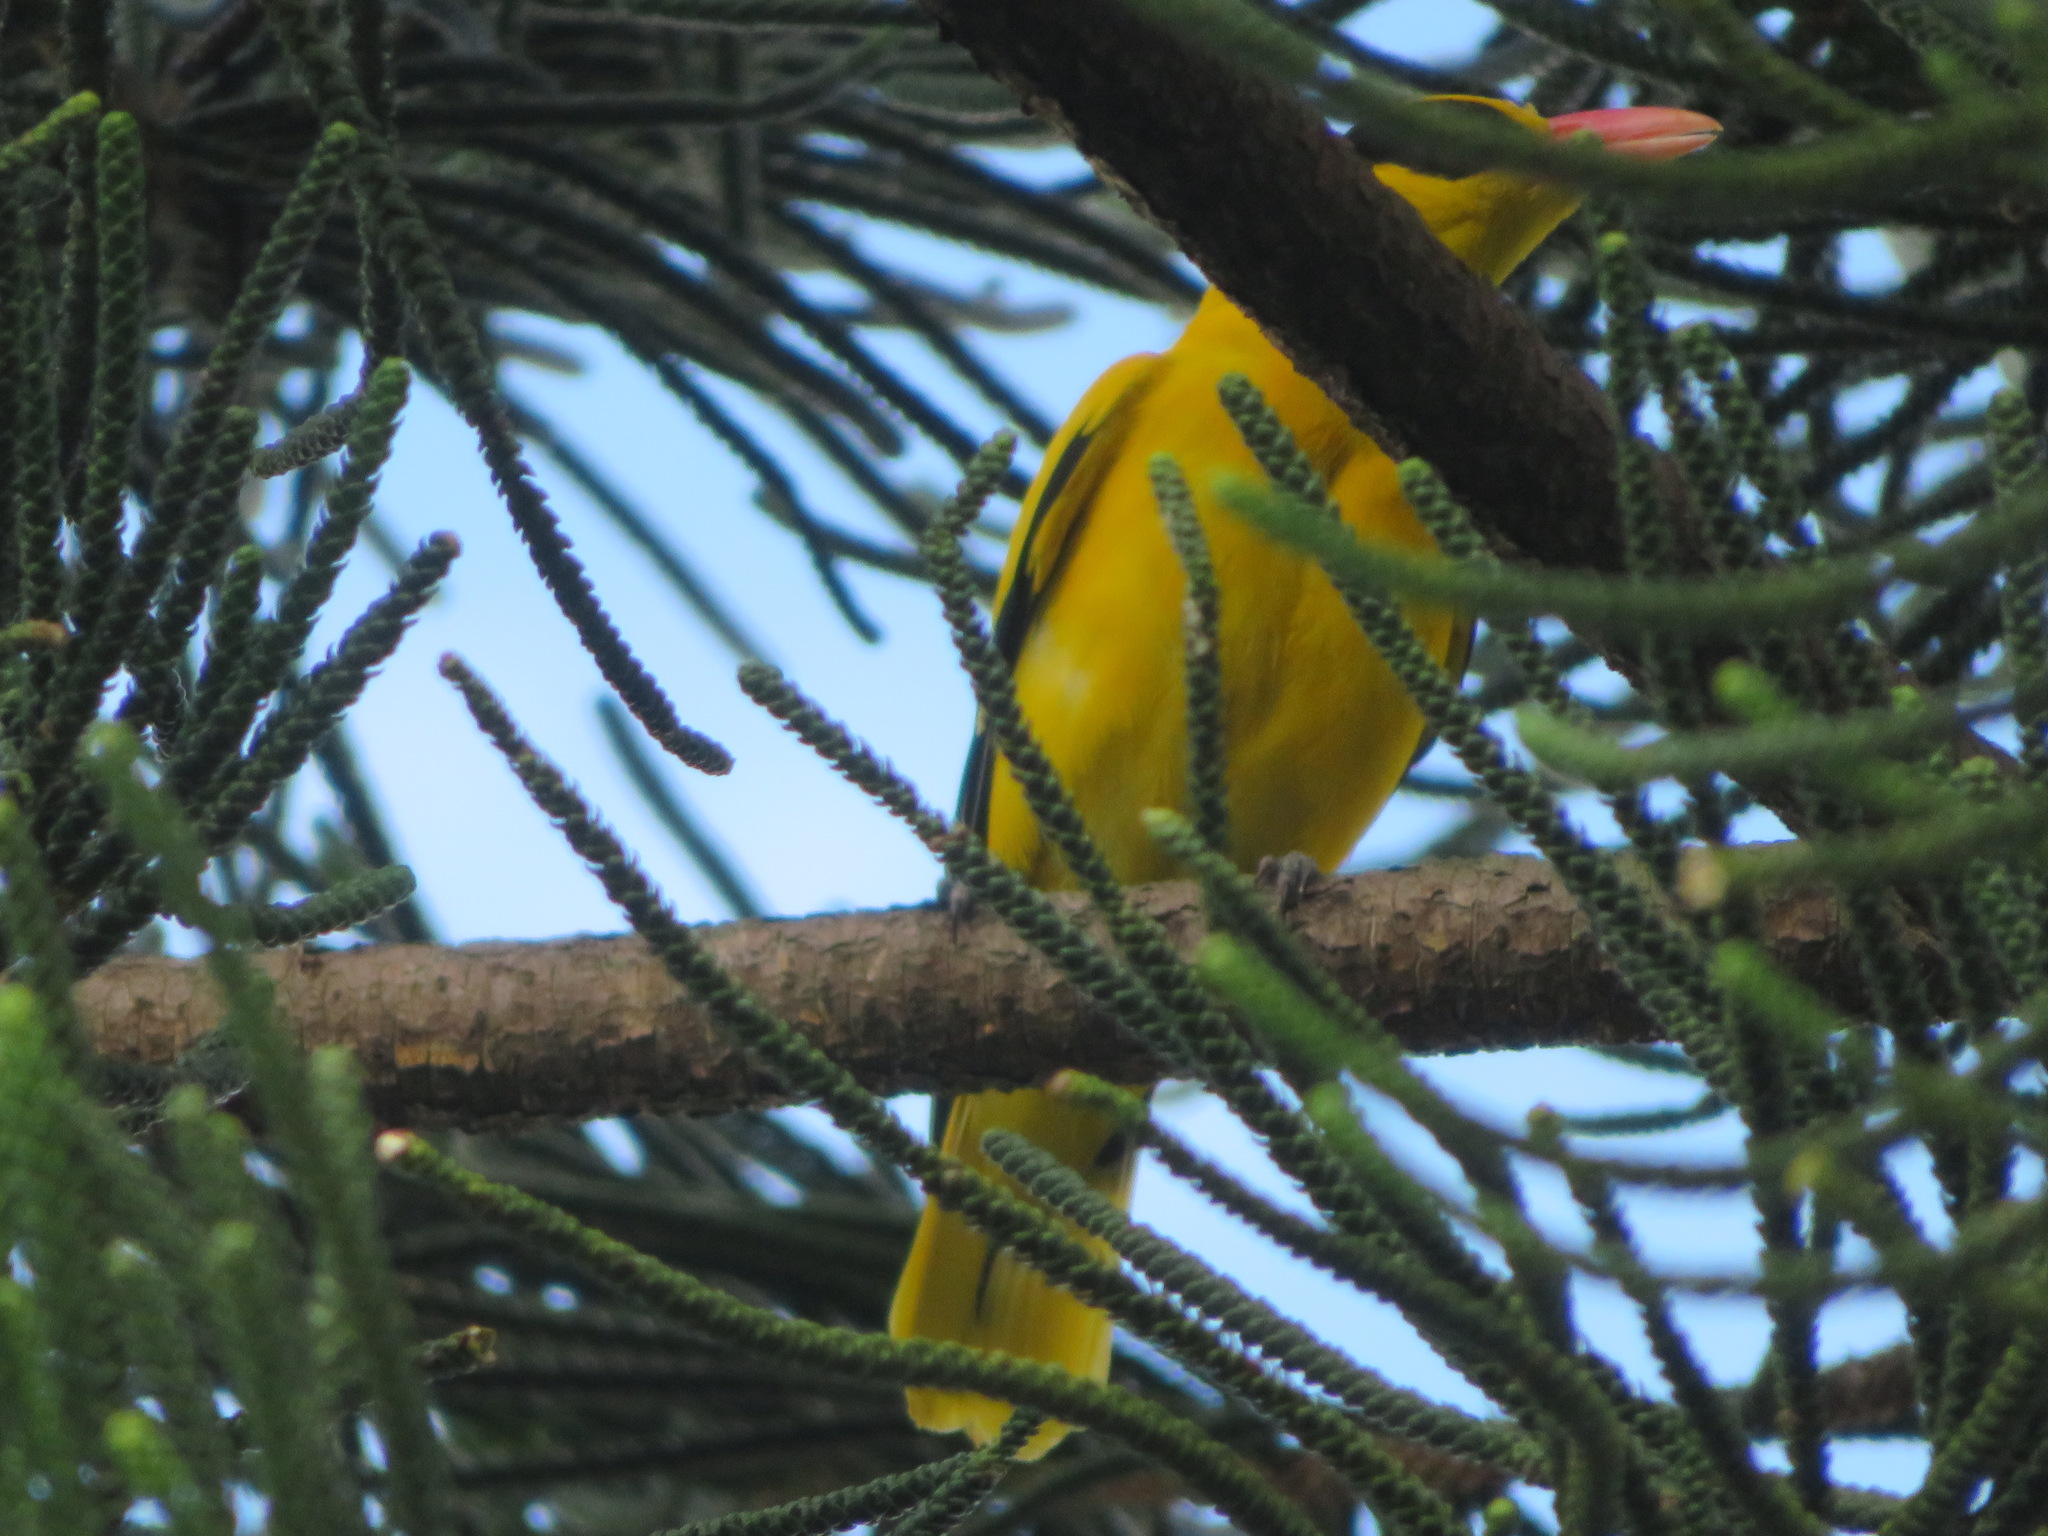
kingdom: Animalia
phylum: Chordata
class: Aves
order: Passeriformes
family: Oriolidae
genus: Oriolus
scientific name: Oriolus chinensis
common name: Black-naped oriole
